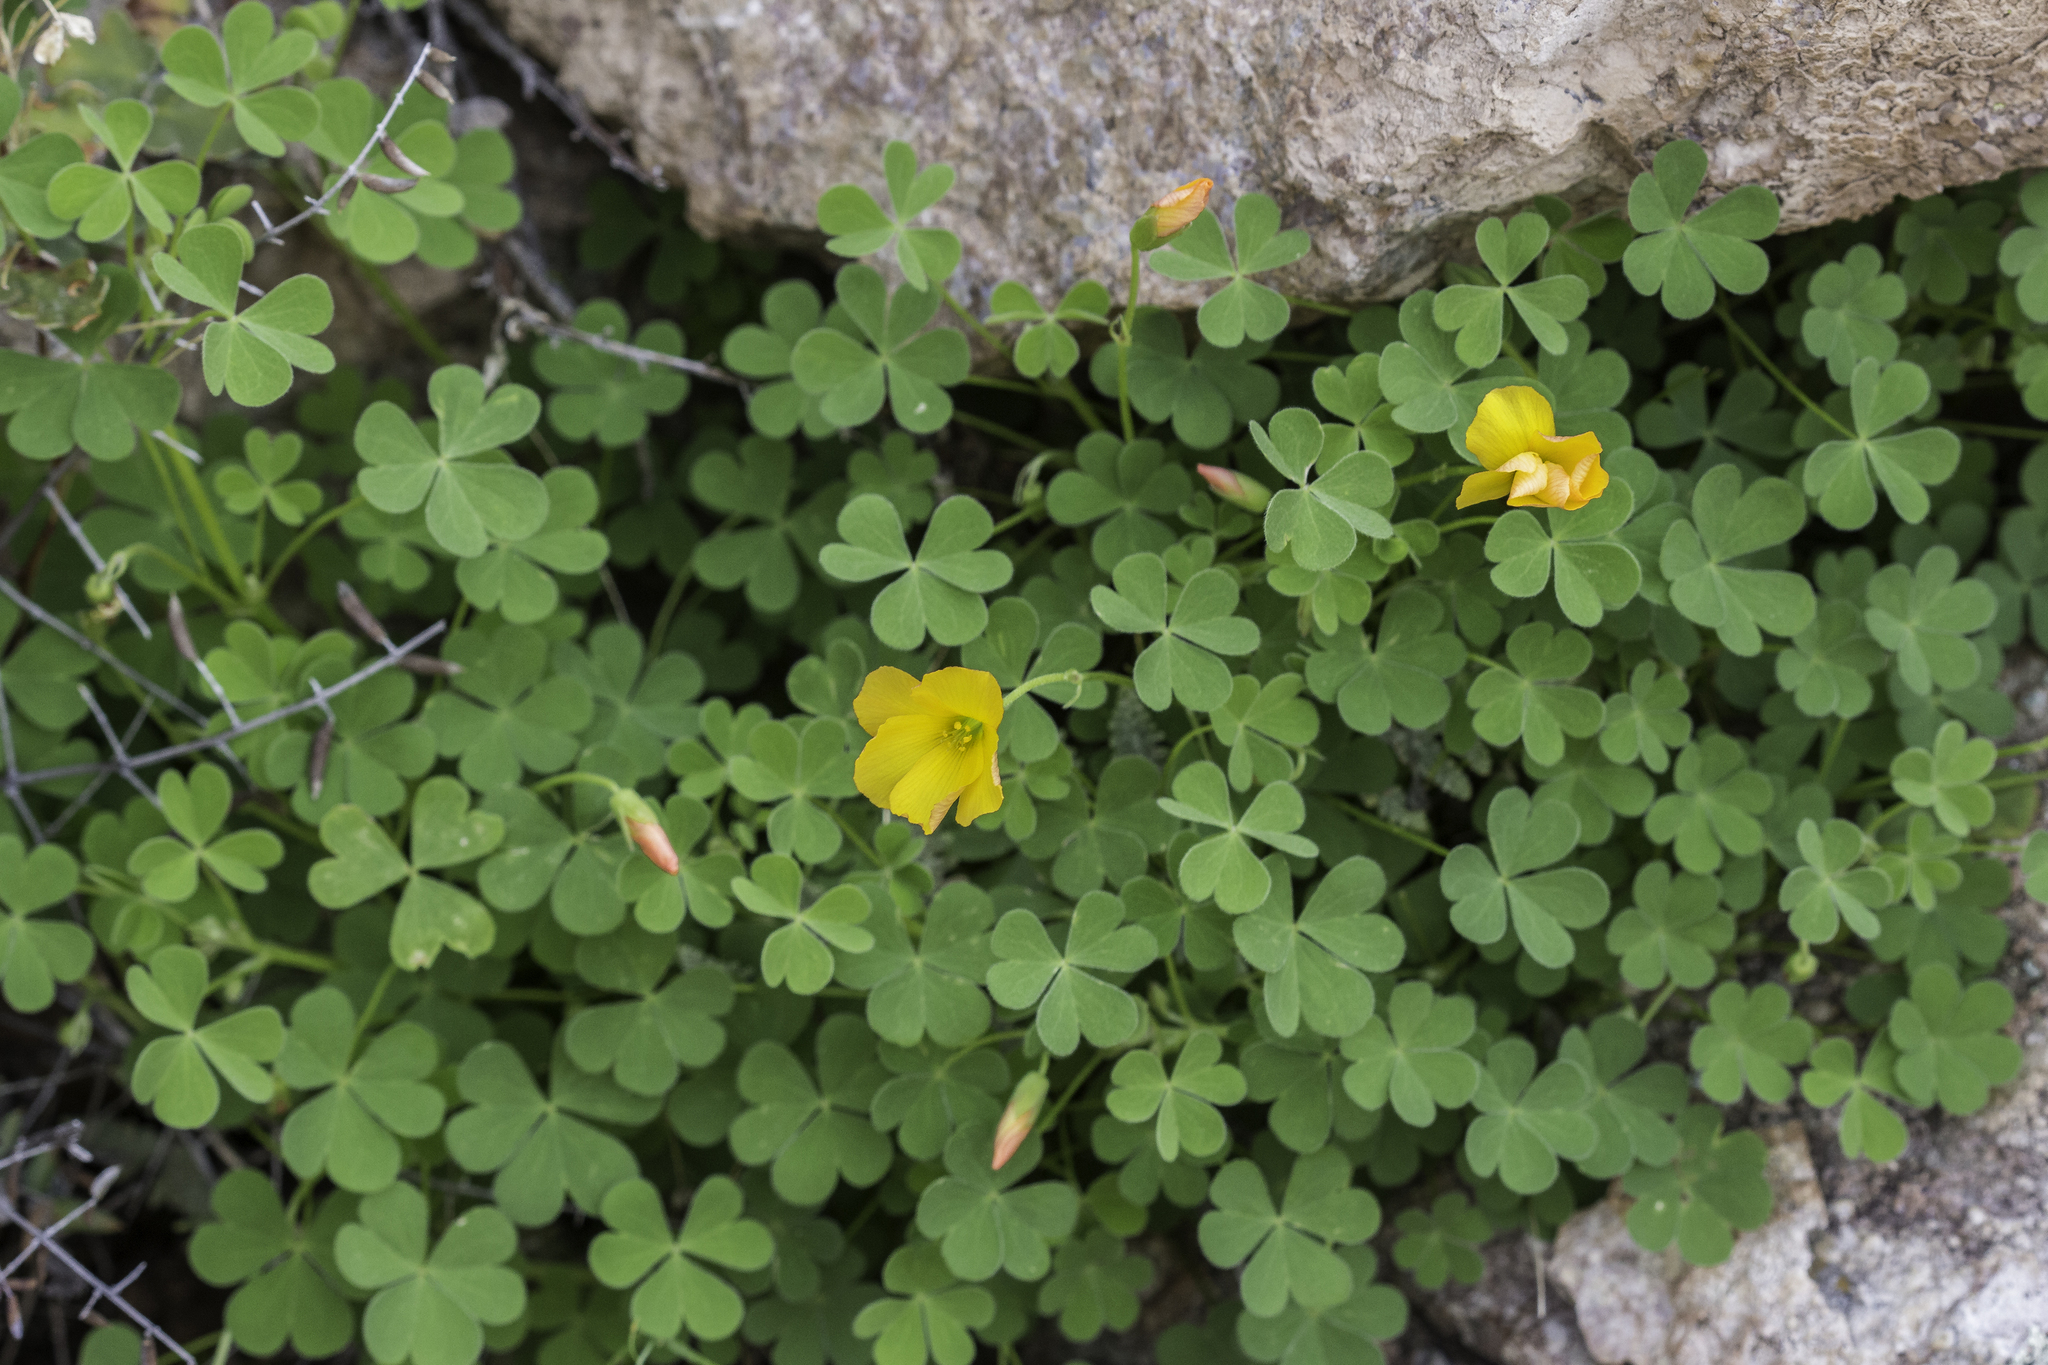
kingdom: Plantae
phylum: Tracheophyta
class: Magnoliopsida
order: Oxalidales
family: Oxalidaceae
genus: Oxalis
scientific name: Oxalis californica
